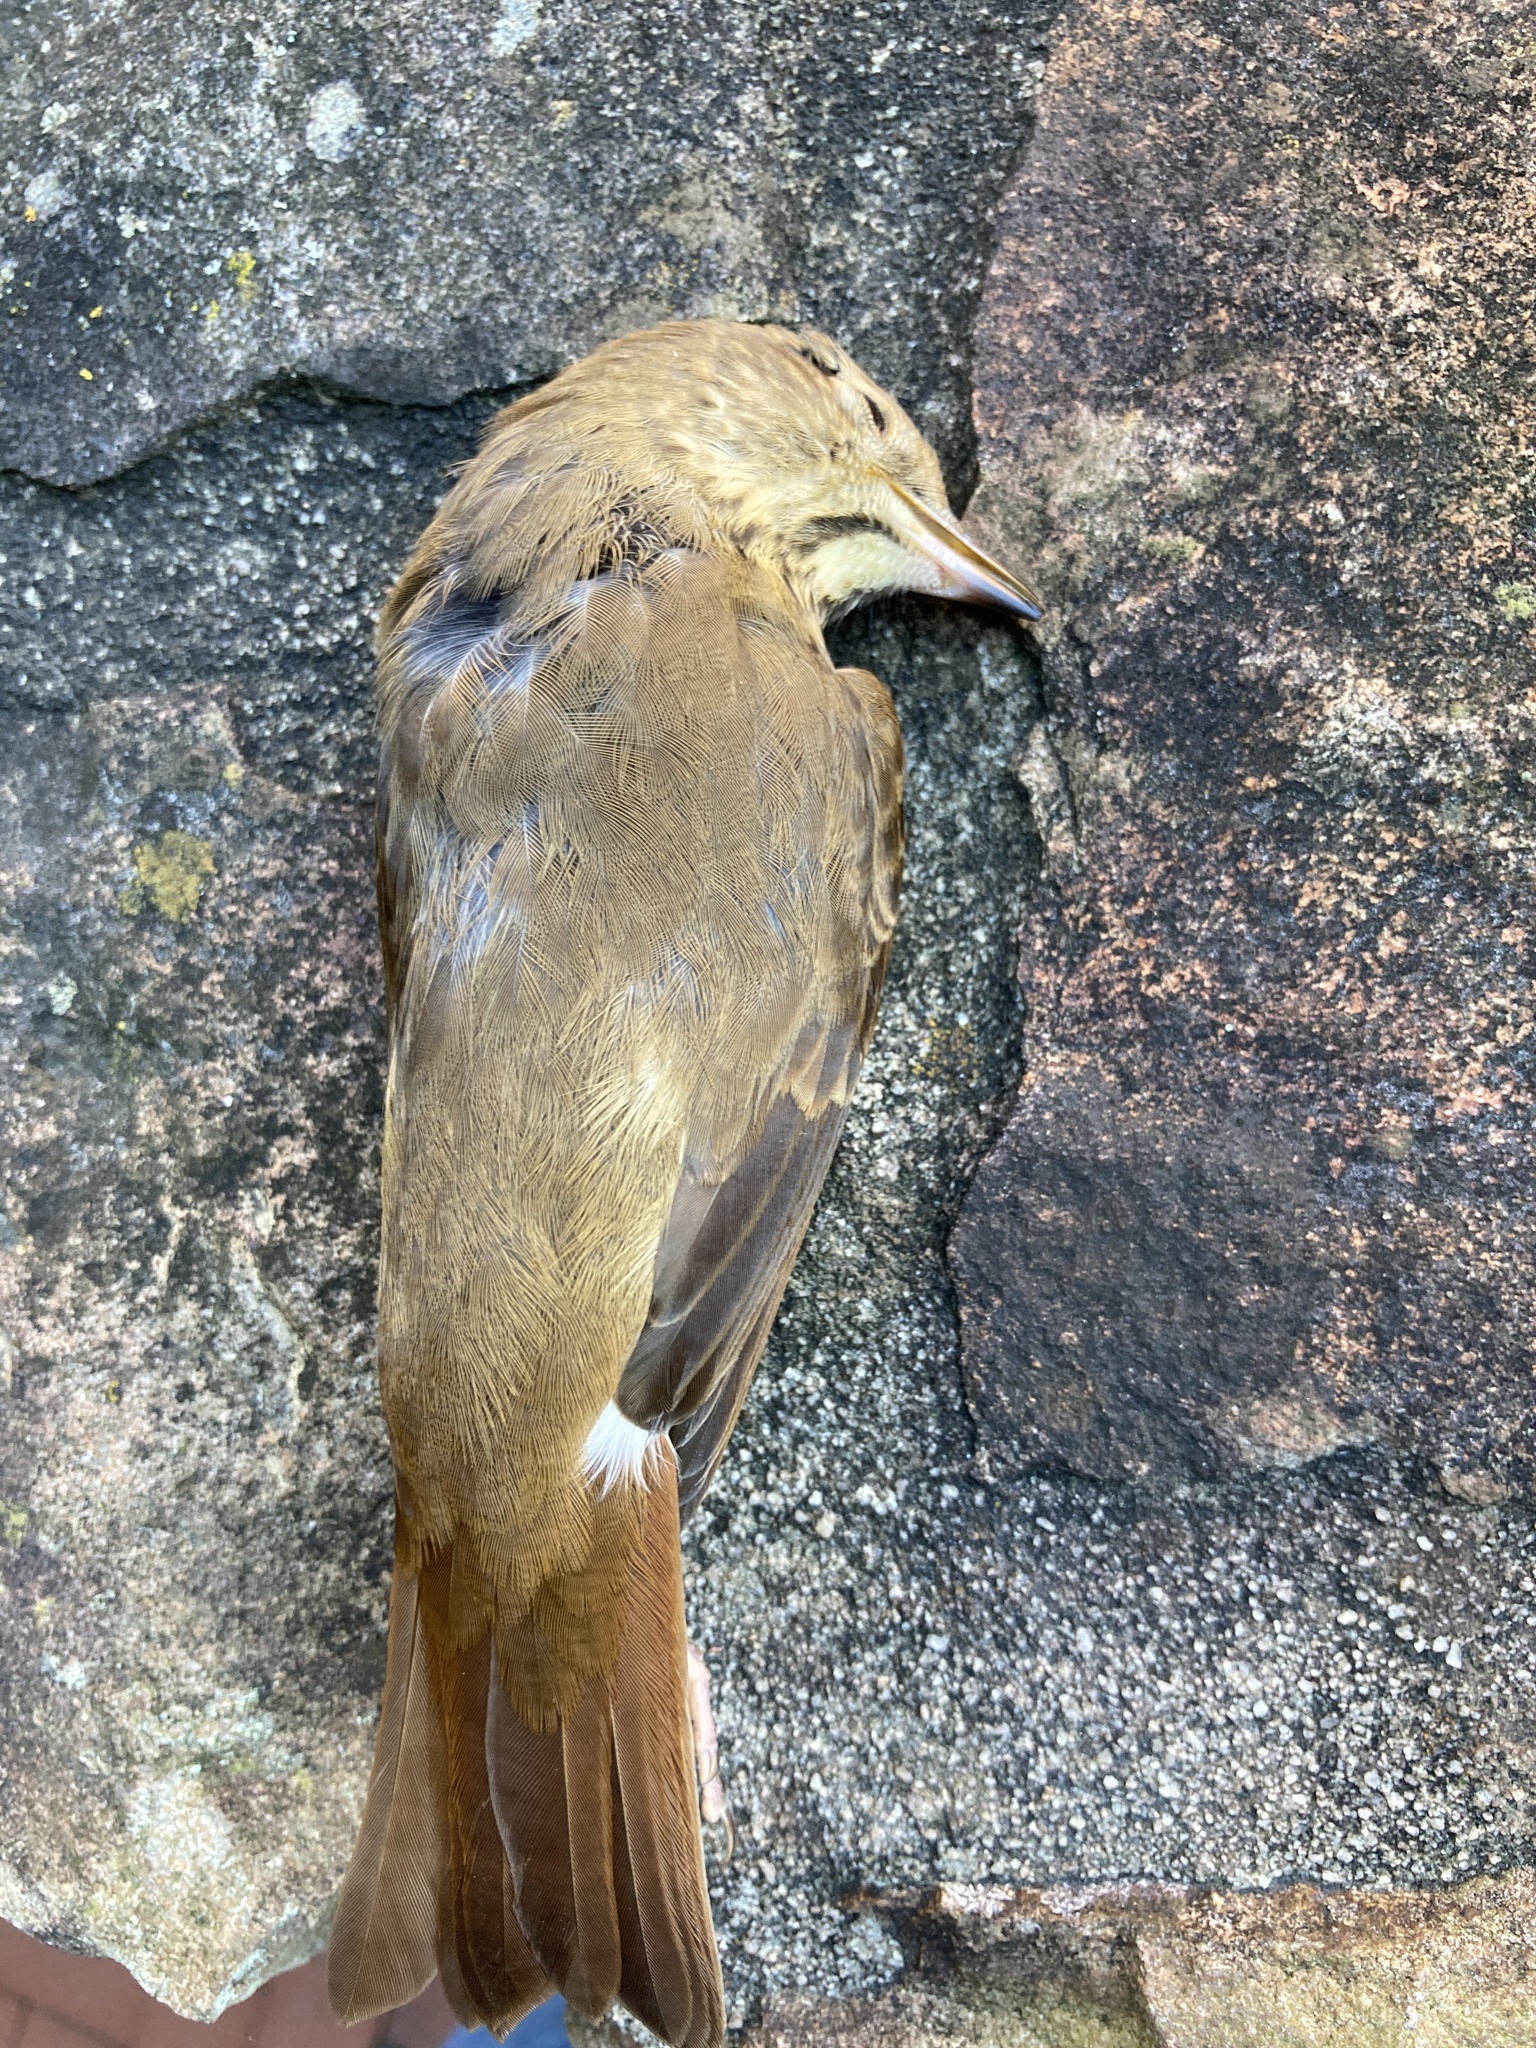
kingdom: Animalia
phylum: Chordata
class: Aves
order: Passeriformes
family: Turdidae
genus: Catharus
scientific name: Catharus guttatus
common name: Hermit thrush
